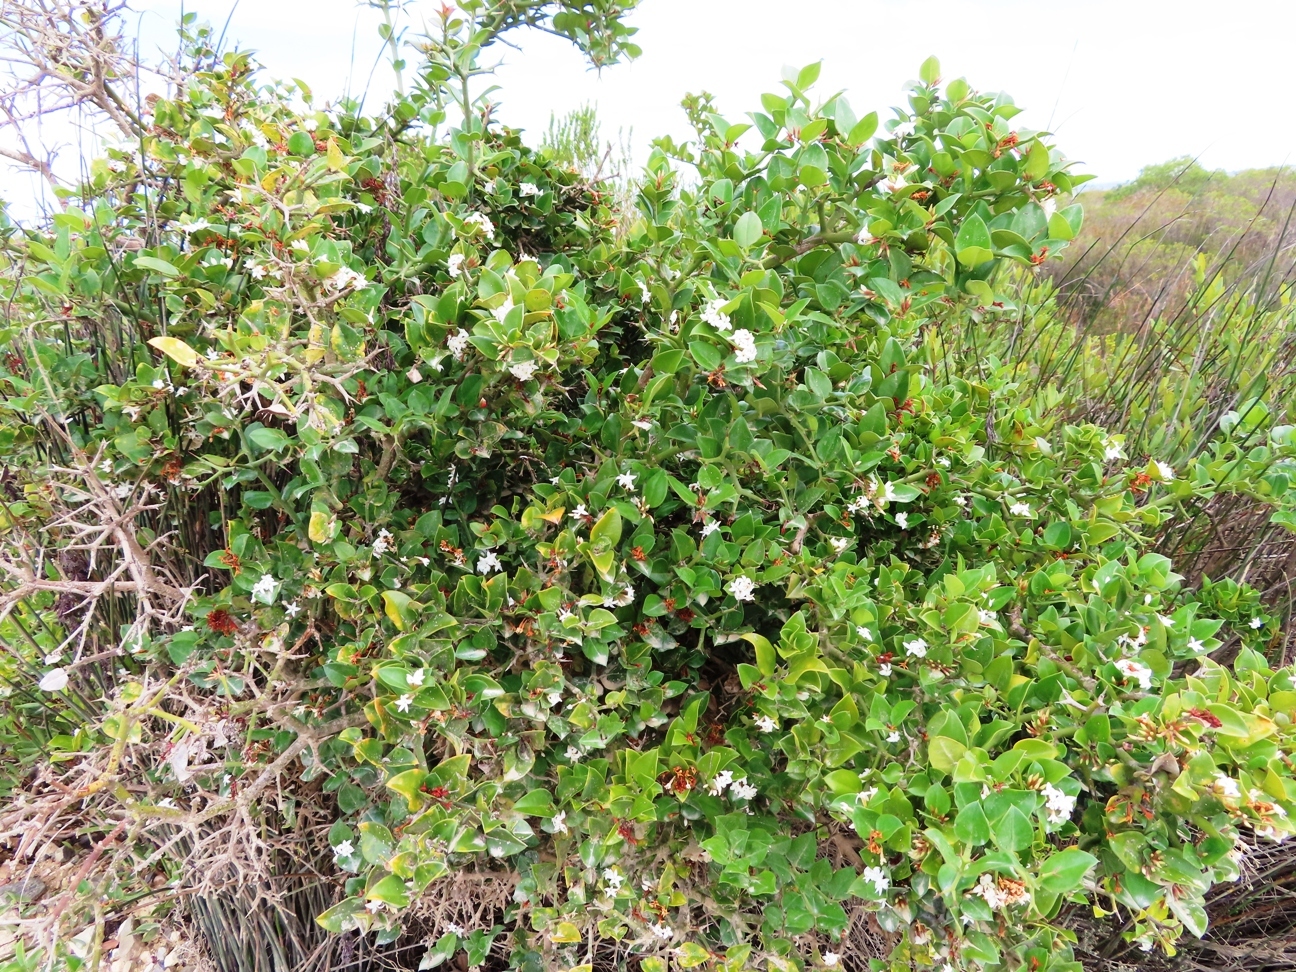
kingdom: Plantae
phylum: Tracheophyta
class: Magnoliopsida
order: Gentianales
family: Apocynaceae
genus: Carissa
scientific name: Carissa bispinosa
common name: Forest num-num
